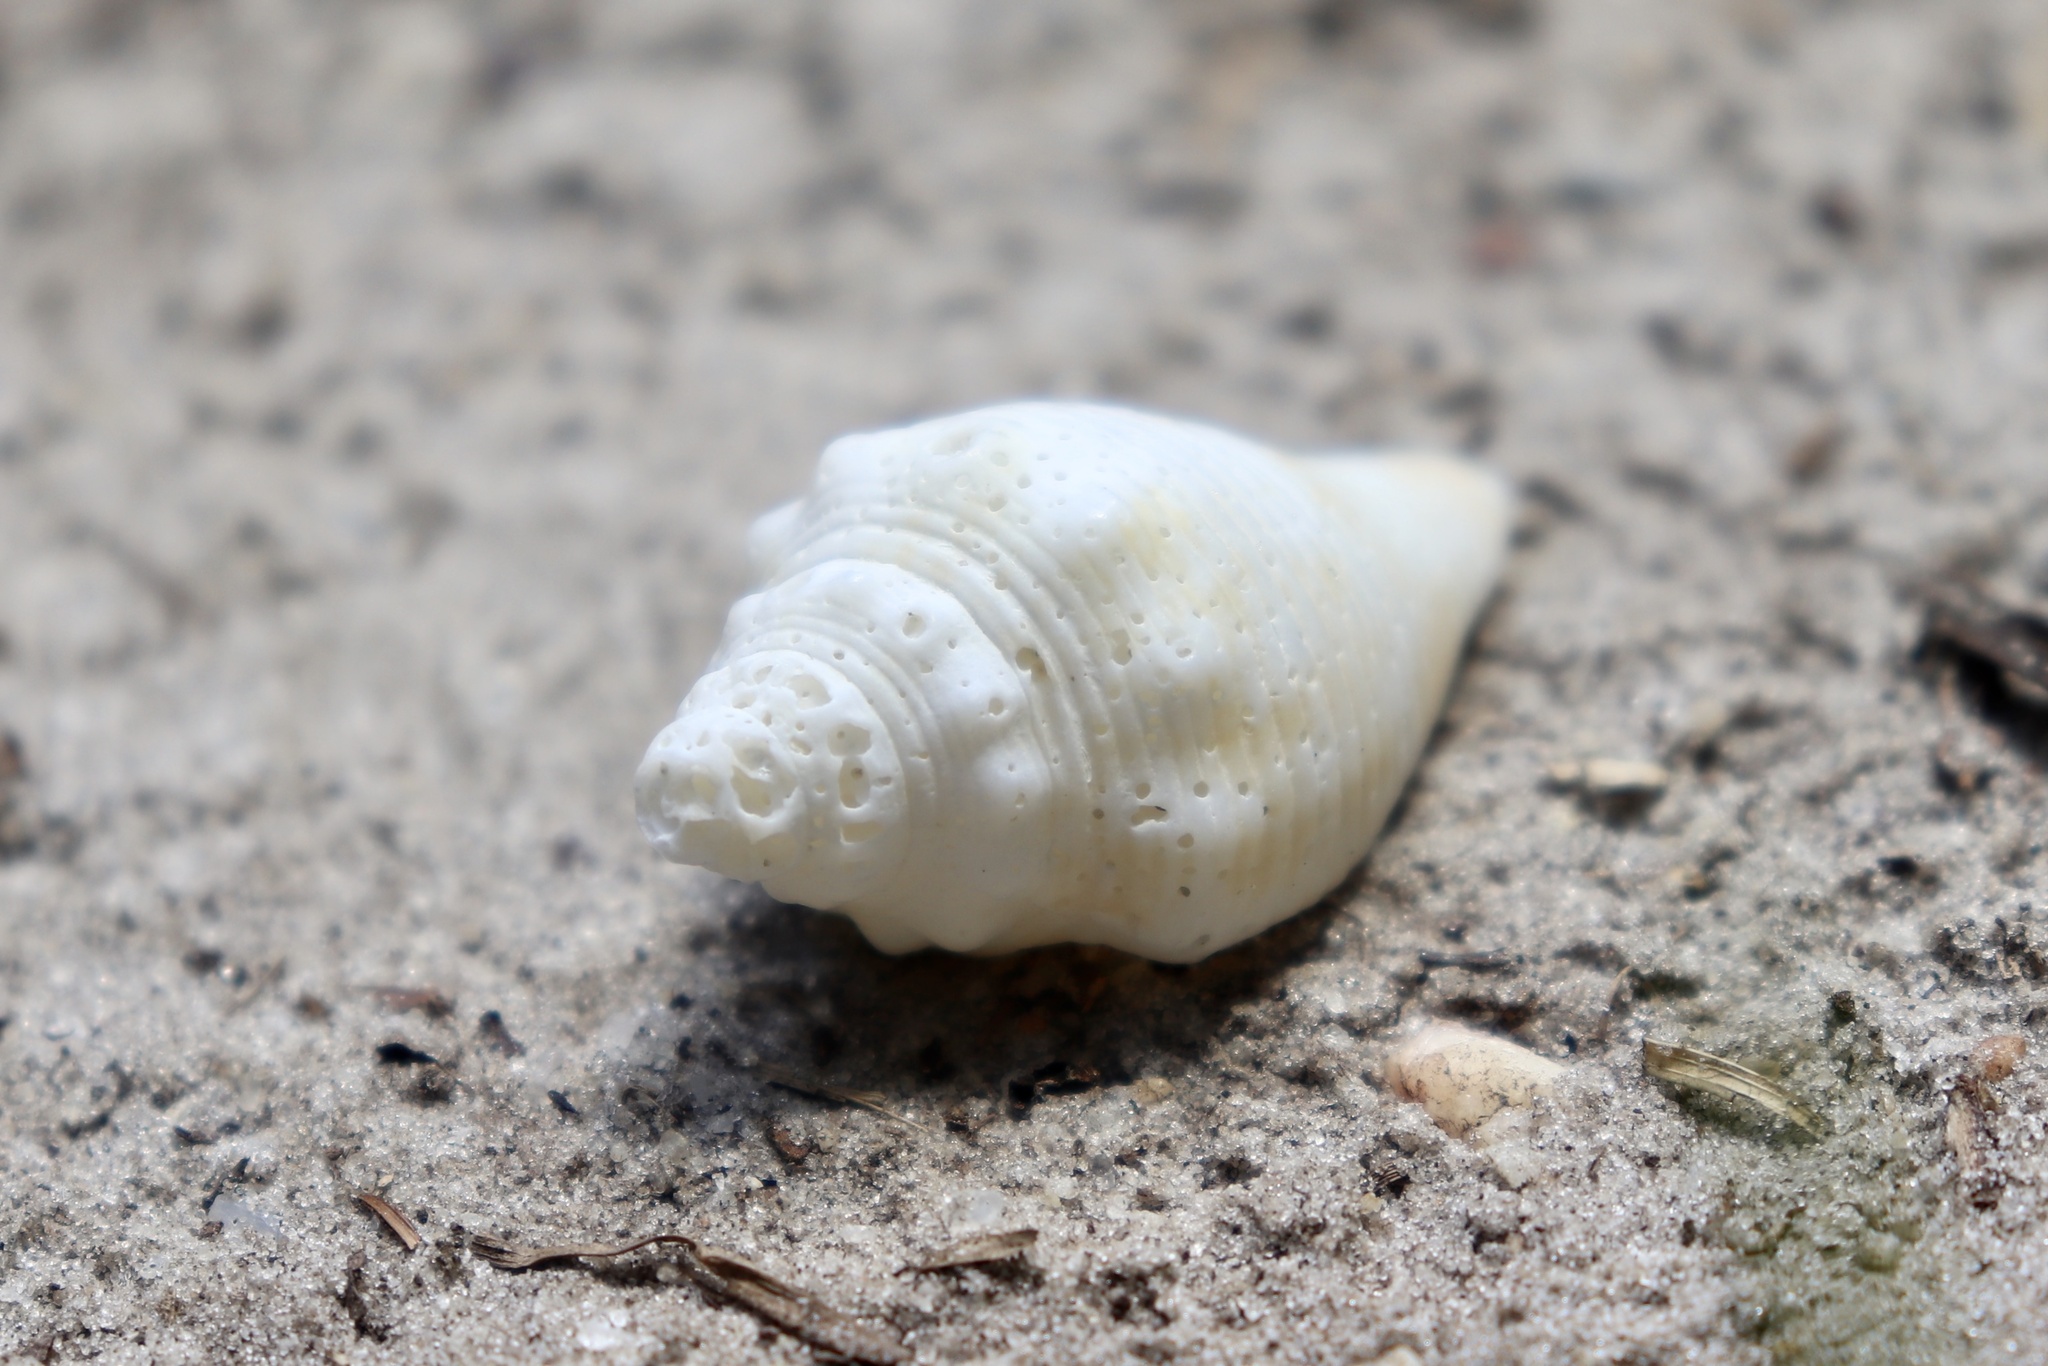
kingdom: Animalia
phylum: Mollusca
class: Gastropoda
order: Littorinimorpha
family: Strombidae
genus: Strombus
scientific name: Strombus alatus
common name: Florida fighting conch
